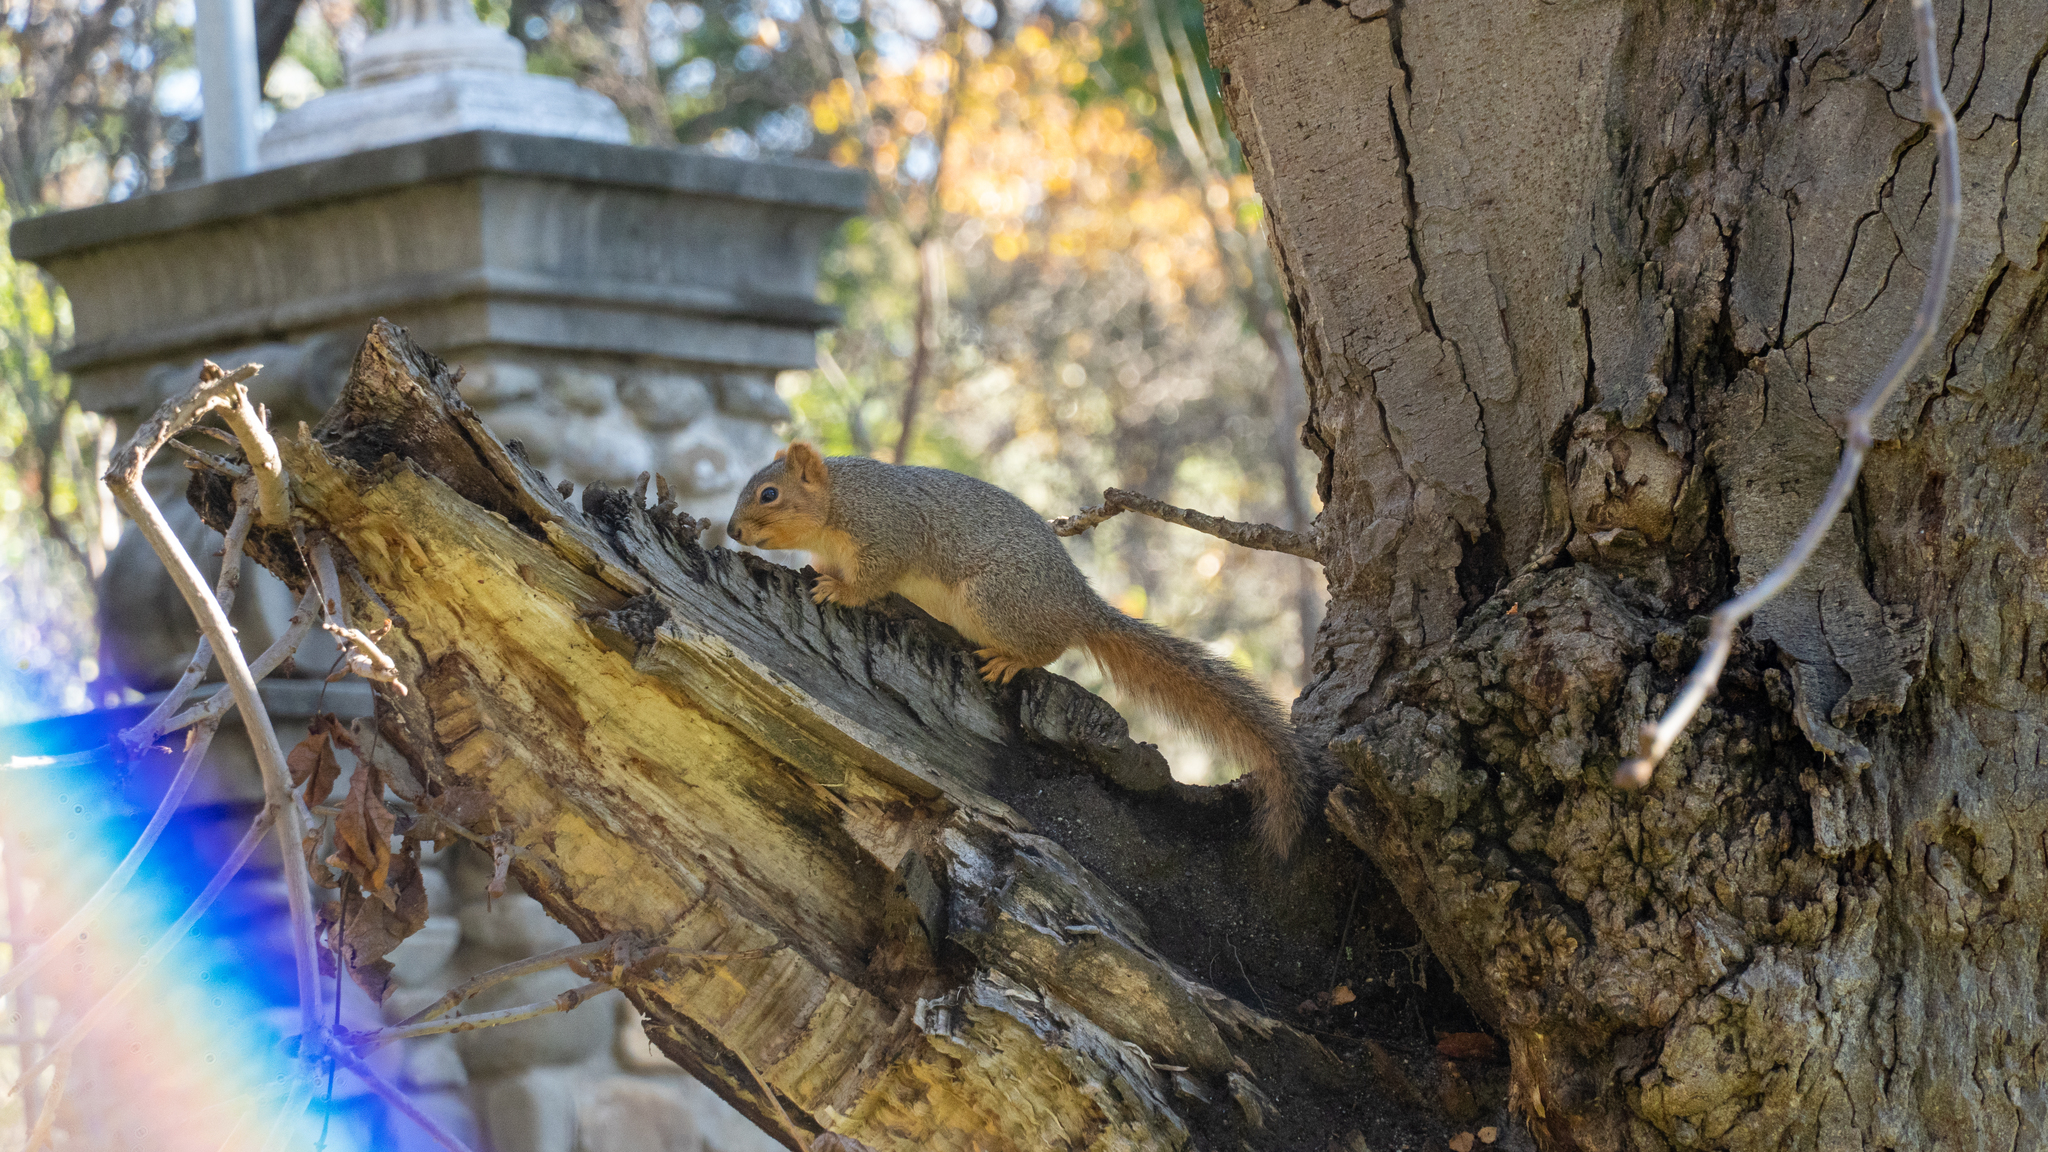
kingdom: Animalia
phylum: Chordata
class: Mammalia
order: Rodentia
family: Sciuridae
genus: Sciurus
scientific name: Sciurus niger
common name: Fox squirrel
